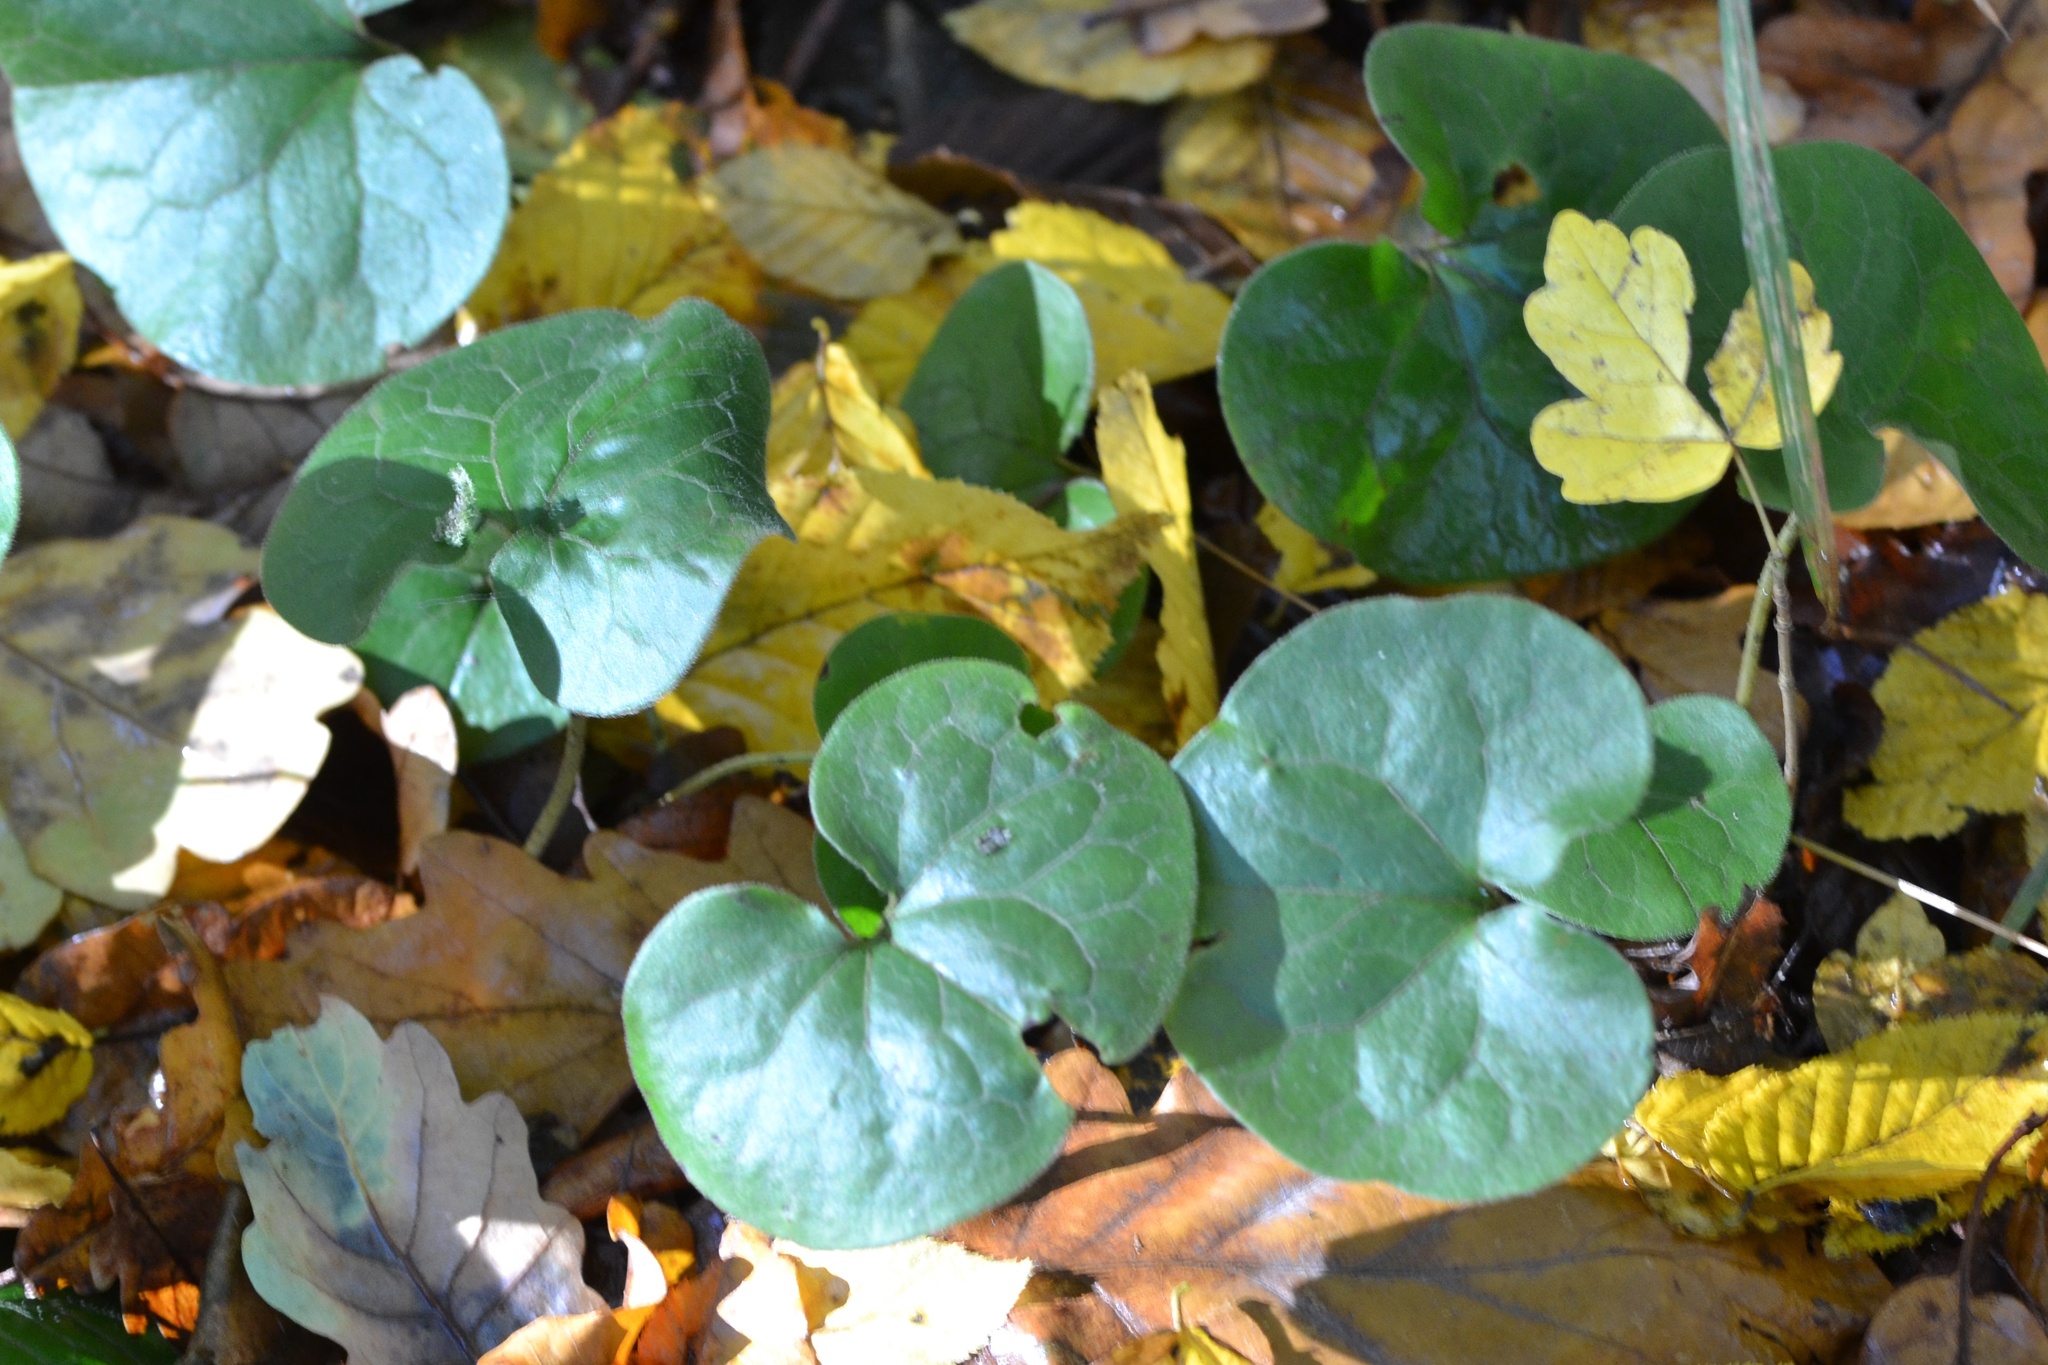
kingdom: Plantae
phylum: Tracheophyta
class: Magnoliopsida
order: Piperales
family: Aristolochiaceae
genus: Asarum
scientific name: Asarum europaeum
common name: Asarabacca
